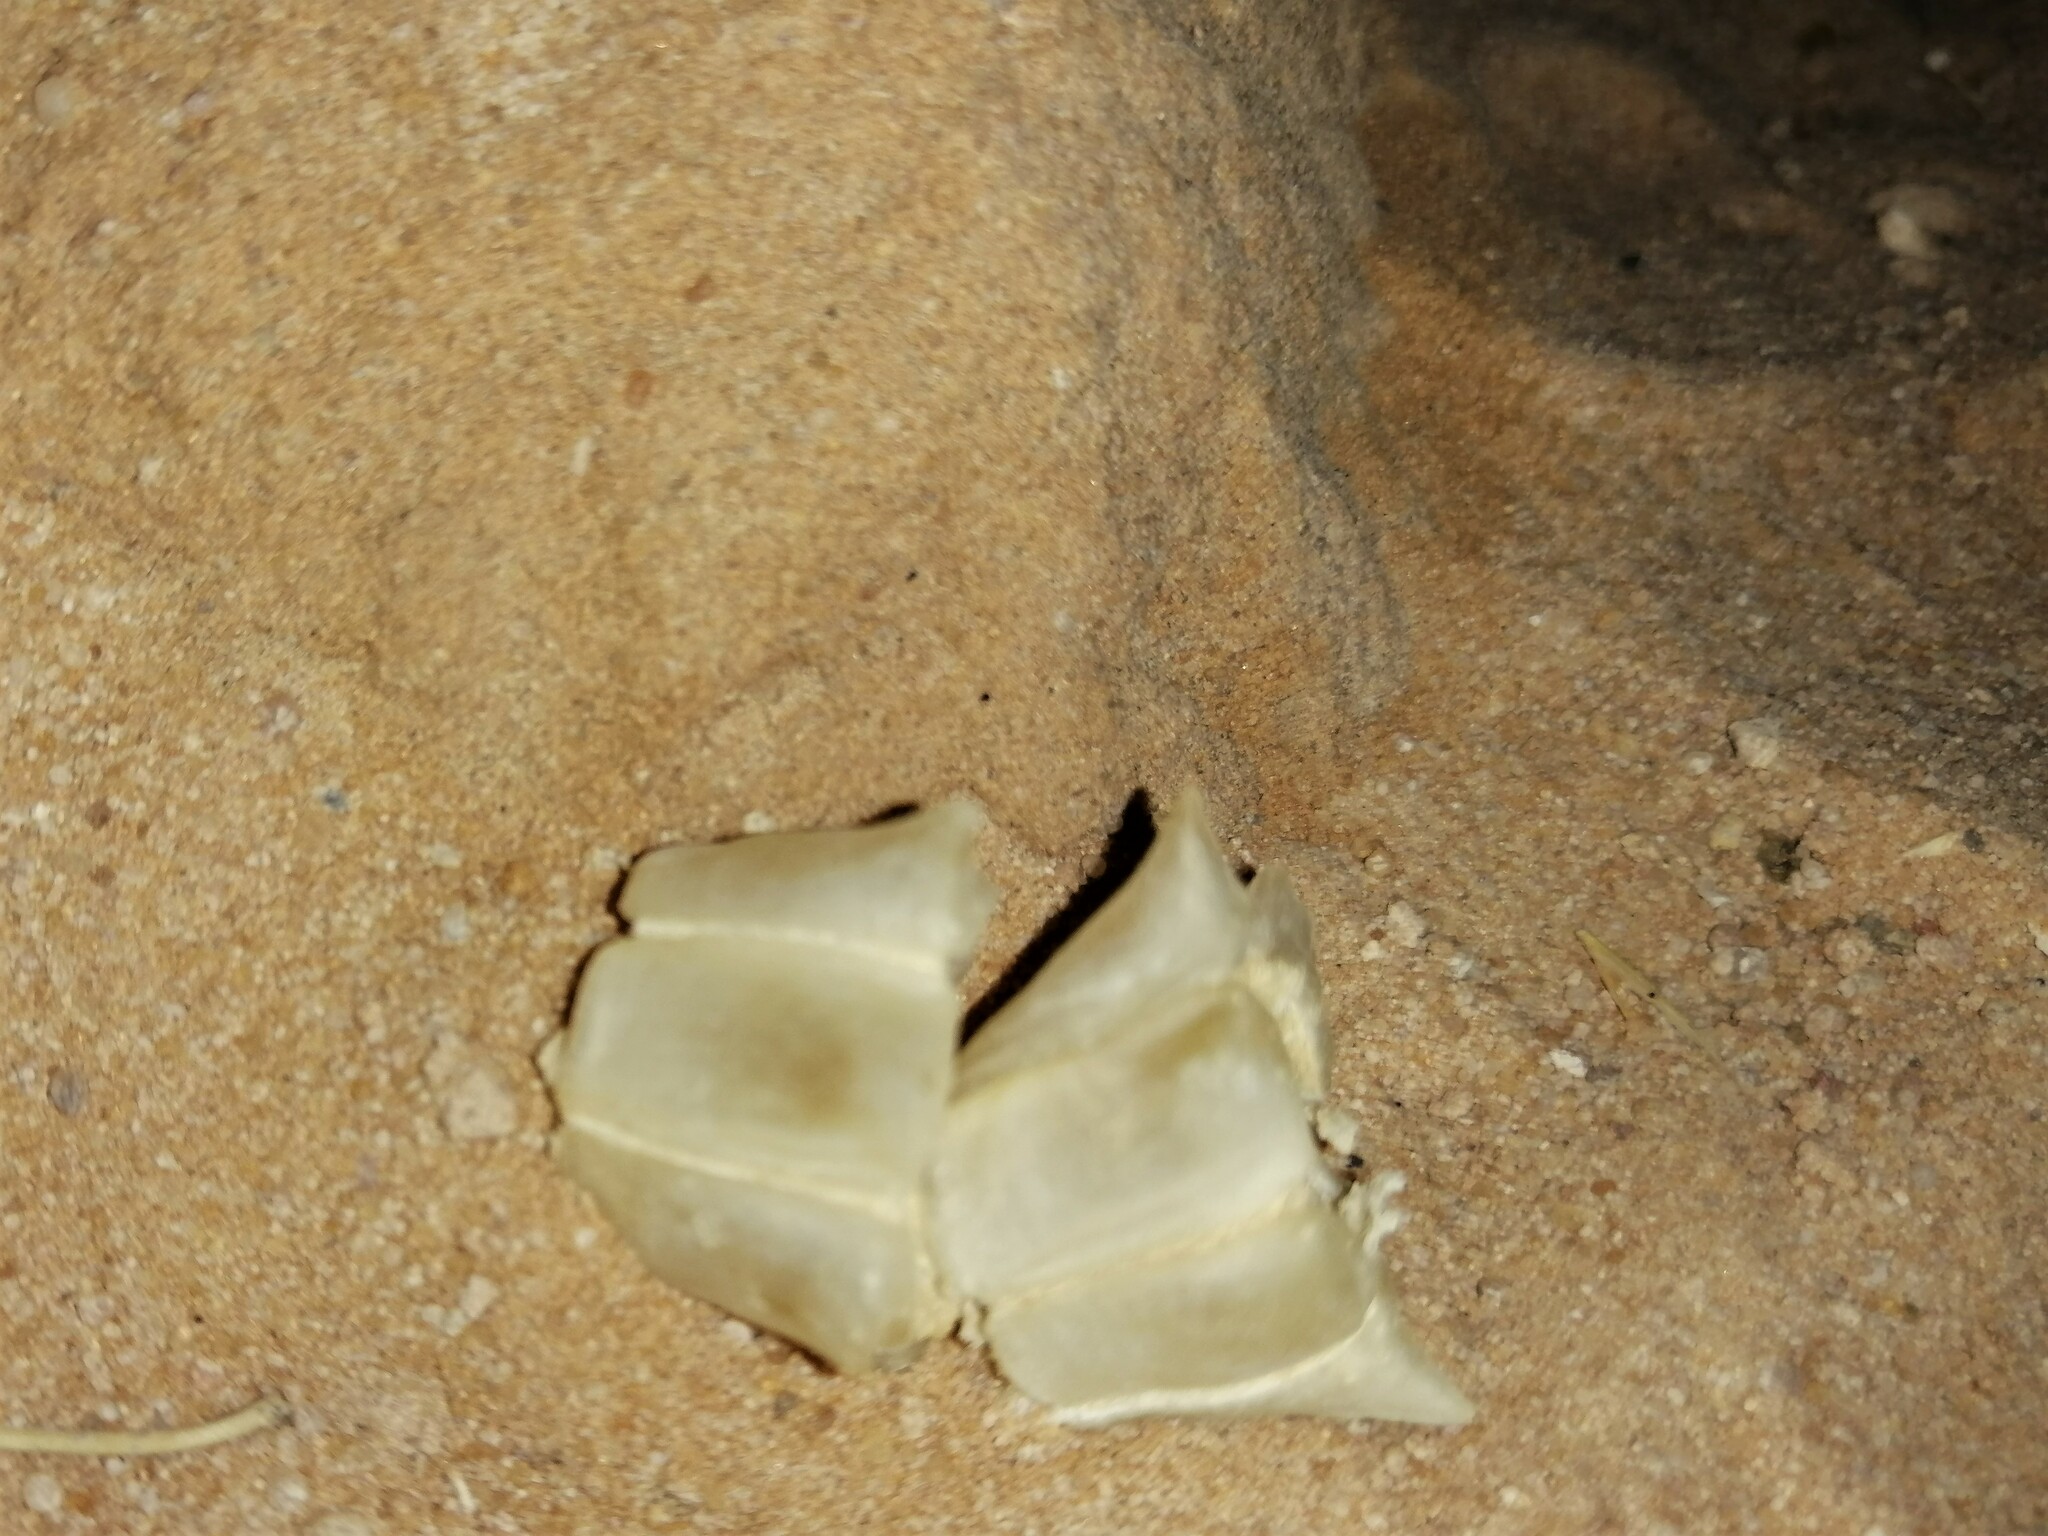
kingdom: Animalia
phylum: Chordata
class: Squamata
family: Agamidae
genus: Uromastyx
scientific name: Uromastyx aegyptia
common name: Egyptian mastigure
